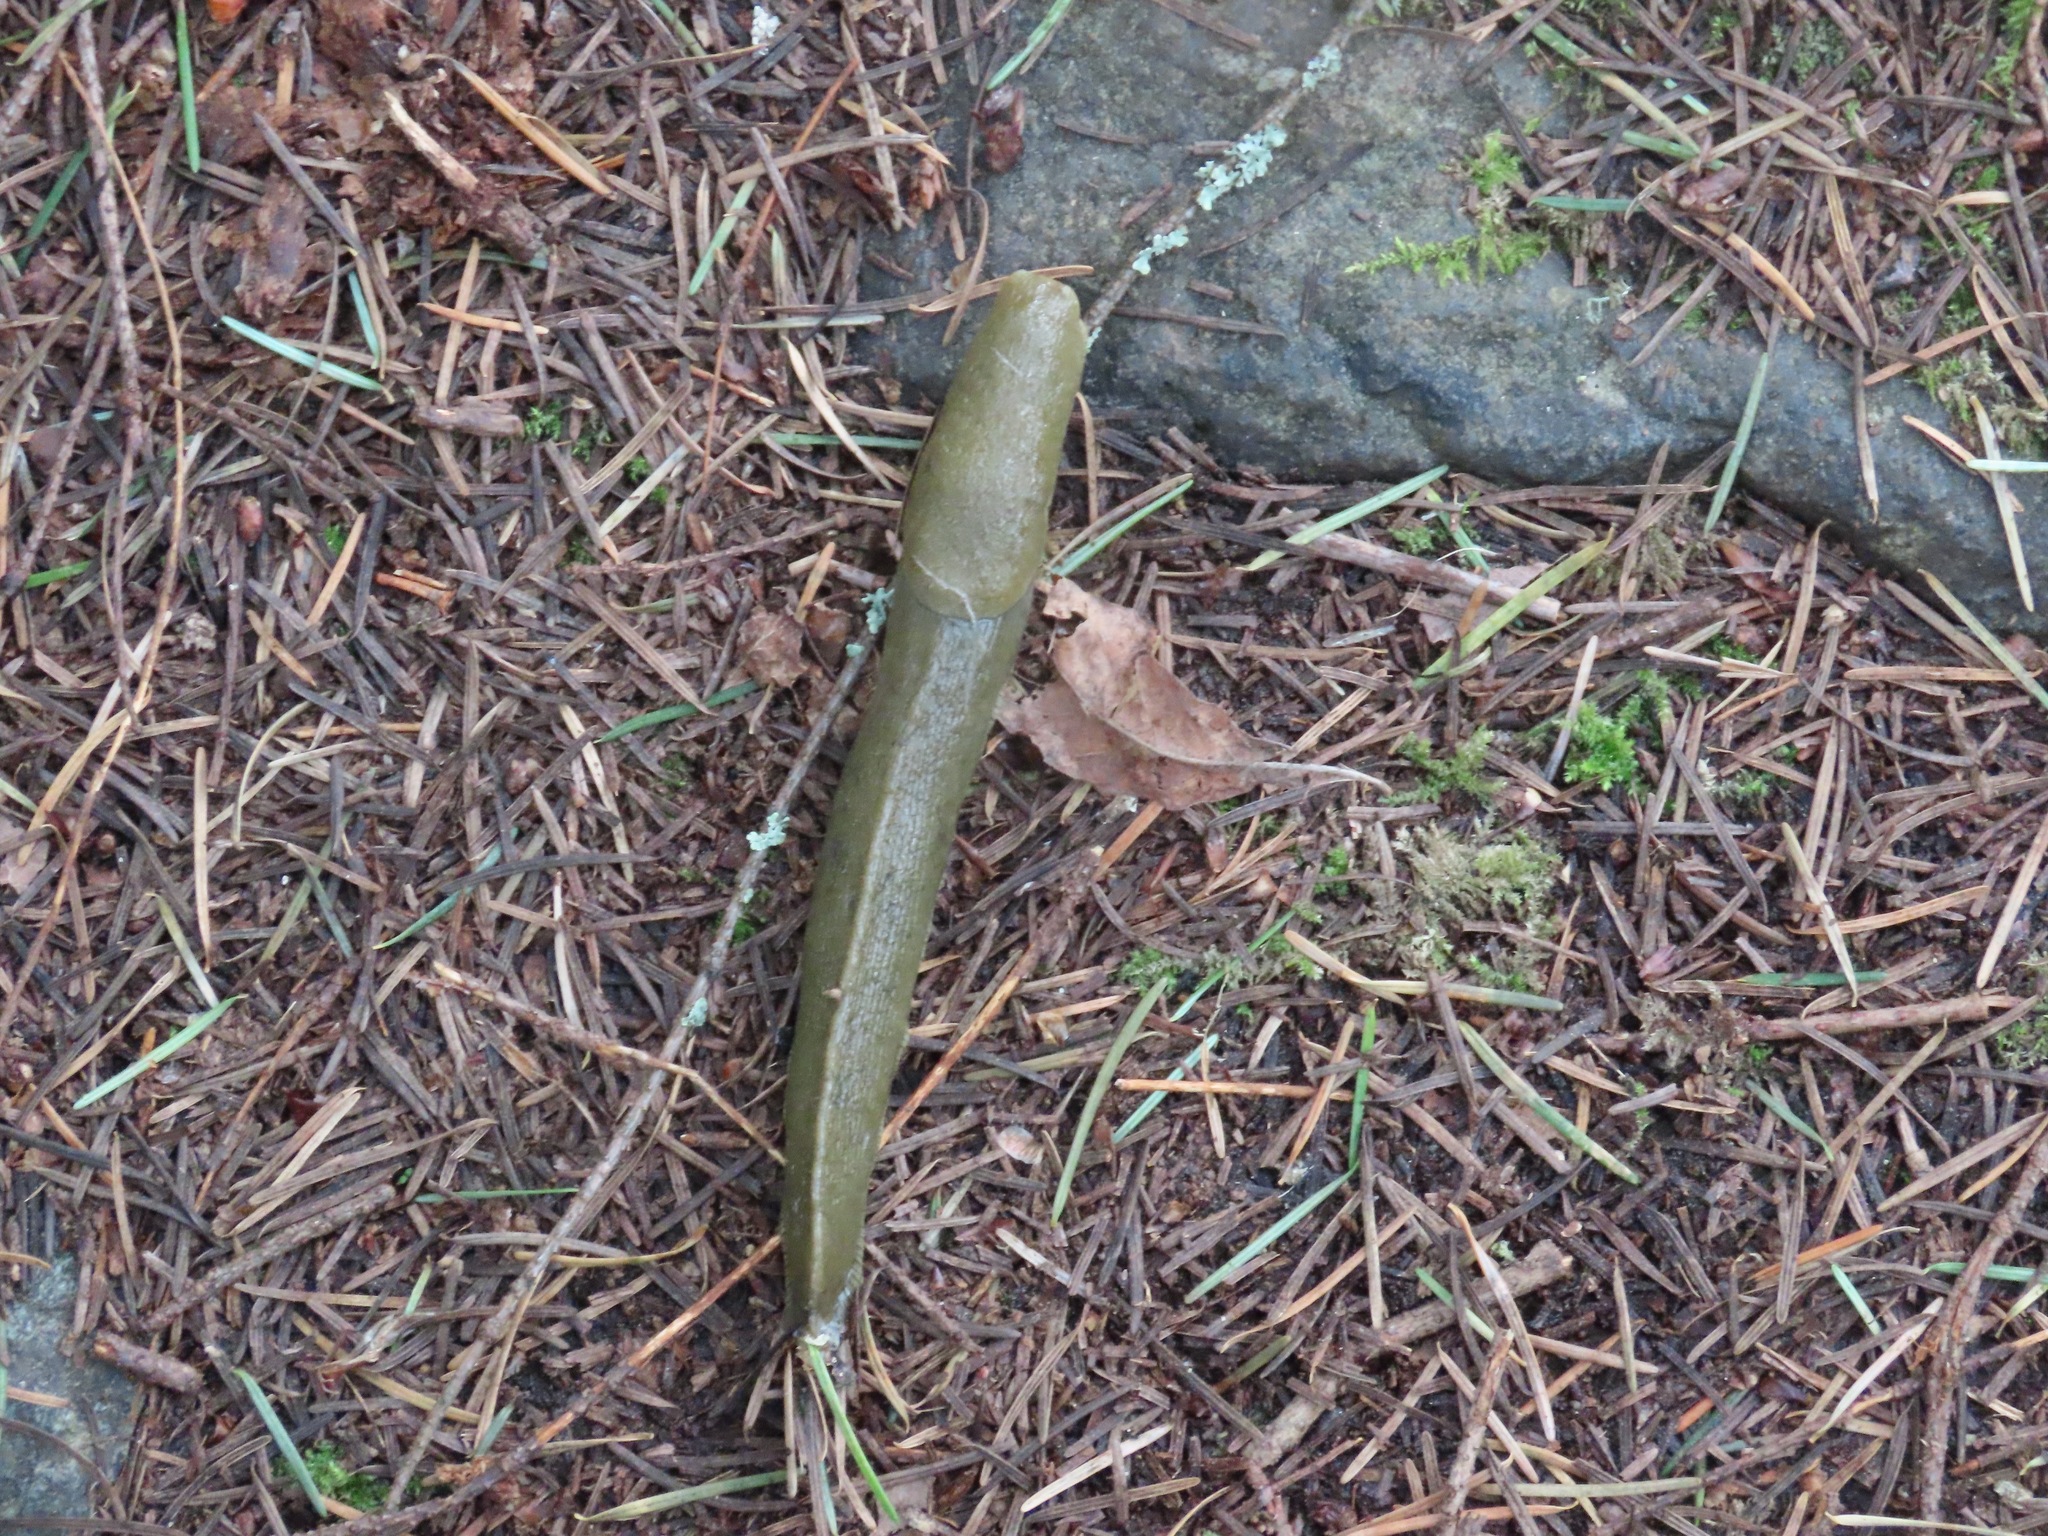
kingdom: Animalia
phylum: Mollusca
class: Gastropoda
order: Stylommatophora
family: Ariolimacidae
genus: Ariolimax
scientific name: Ariolimax columbianus
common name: Pacific banana slug
